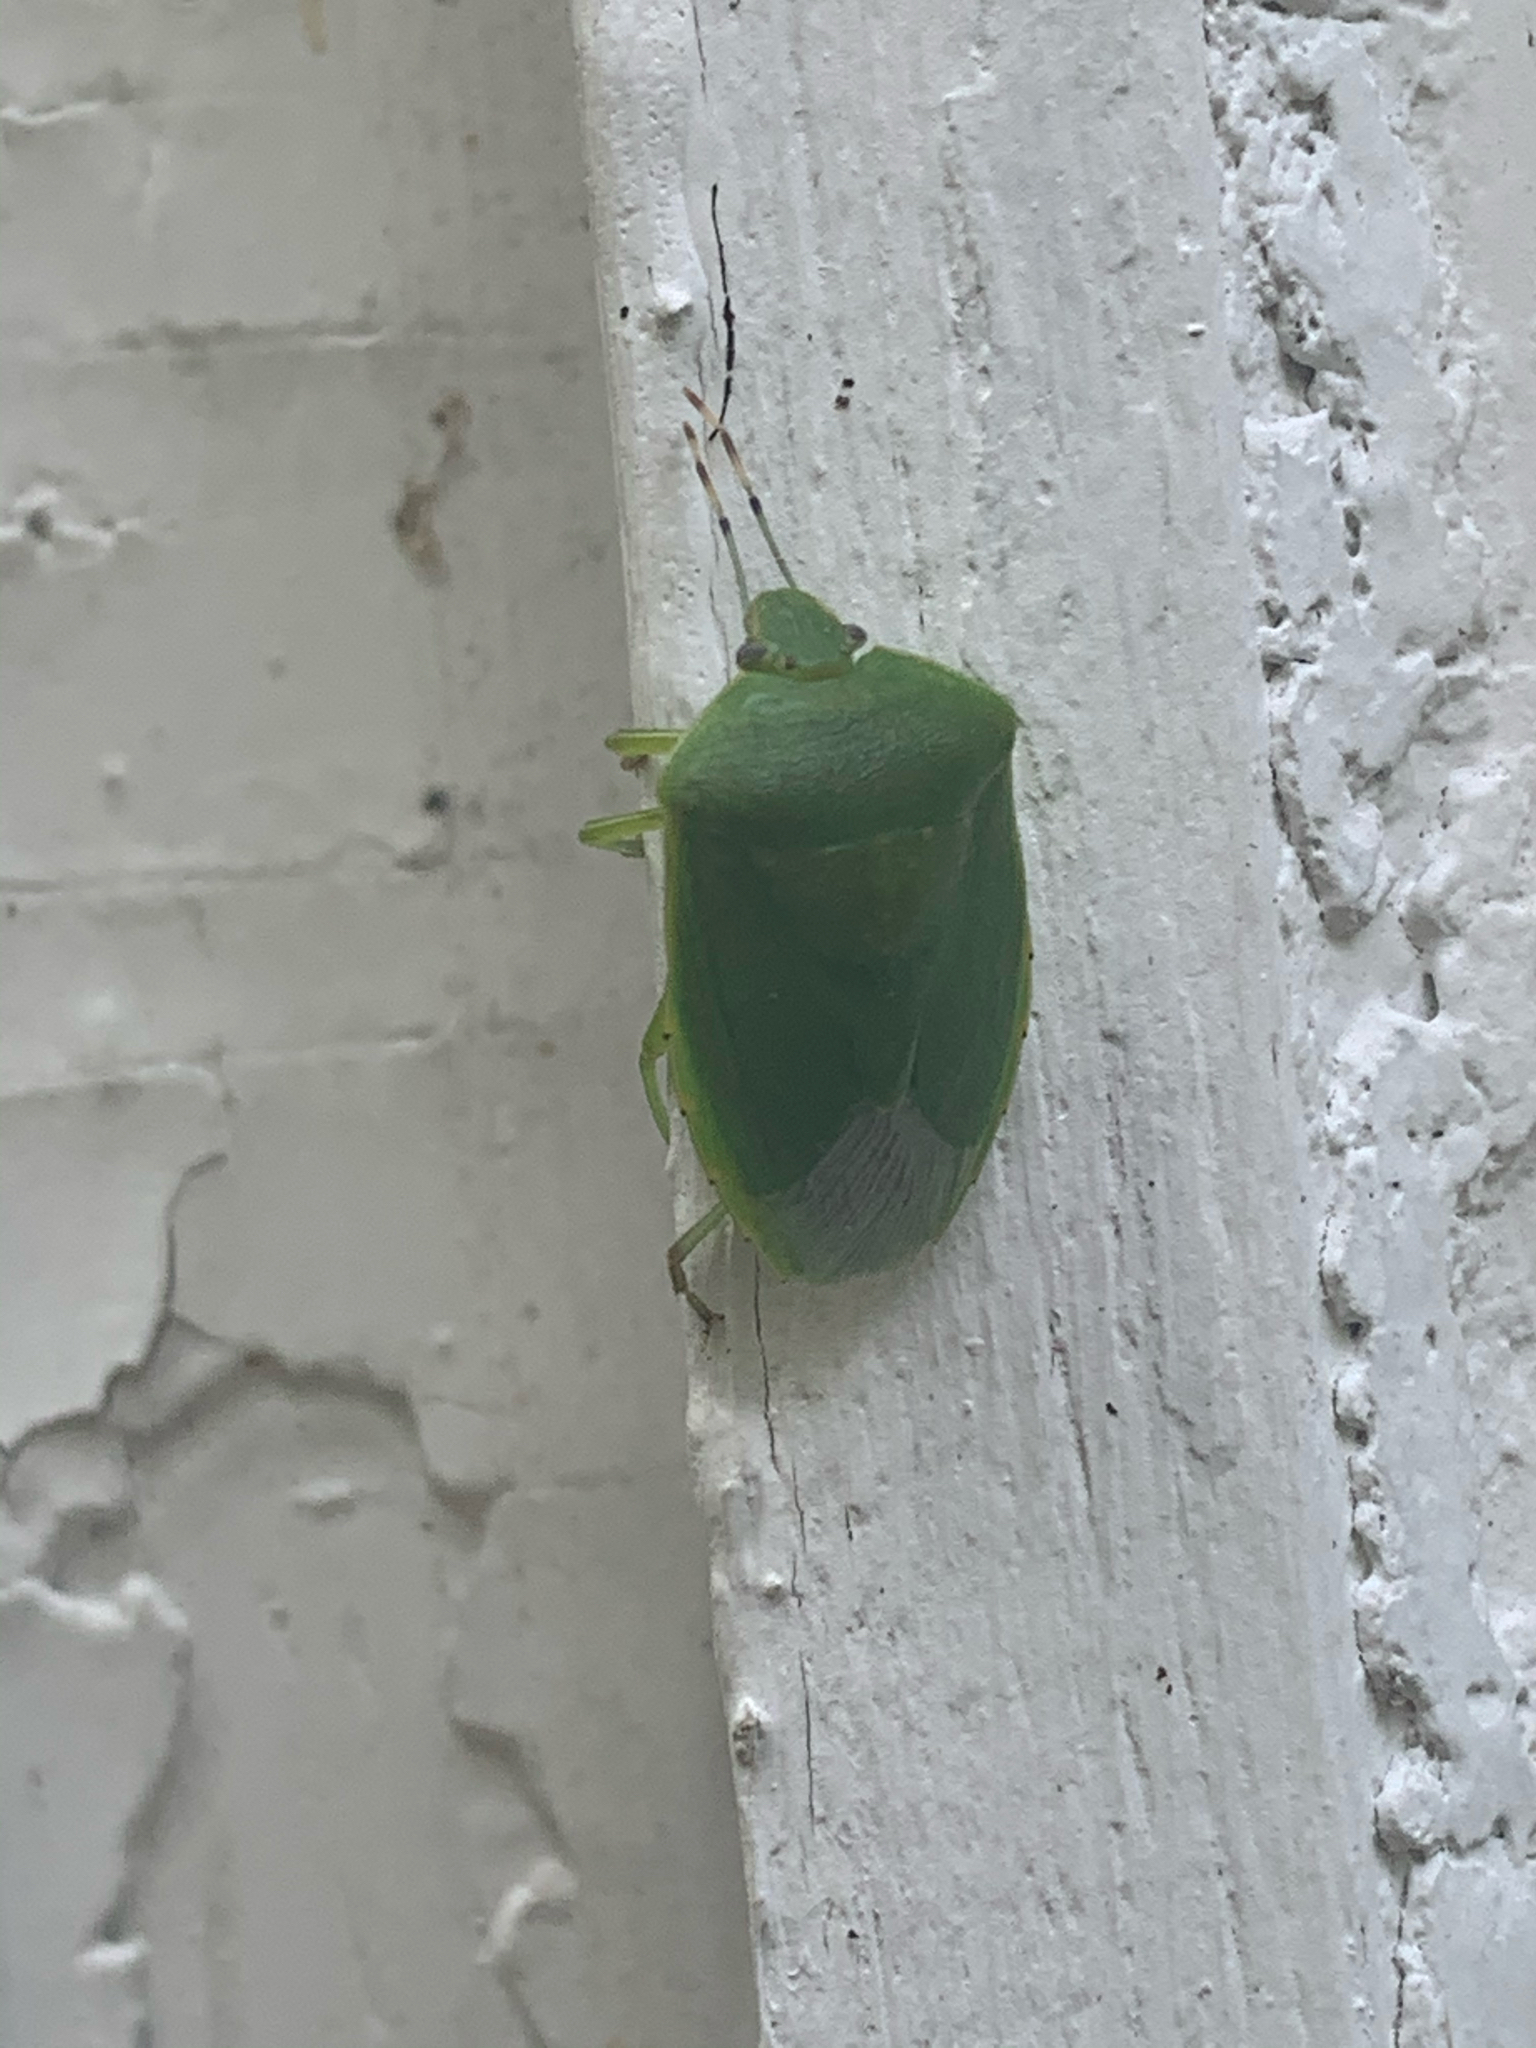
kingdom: Animalia
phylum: Arthropoda
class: Insecta
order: Hemiptera
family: Pentatomidae
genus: Chinavia
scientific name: Chinavia hilaris
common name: Green stink bug
